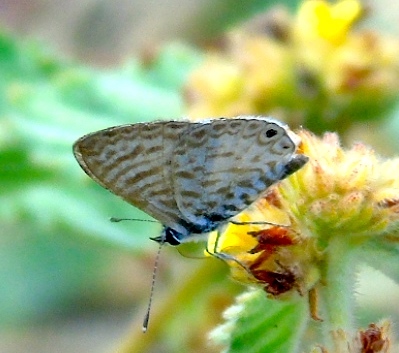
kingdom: Animalia
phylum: Arthropoda
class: Insecta
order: Lepidoptera
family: Lycaenidae
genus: Leptotes
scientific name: Leptotes theonus
